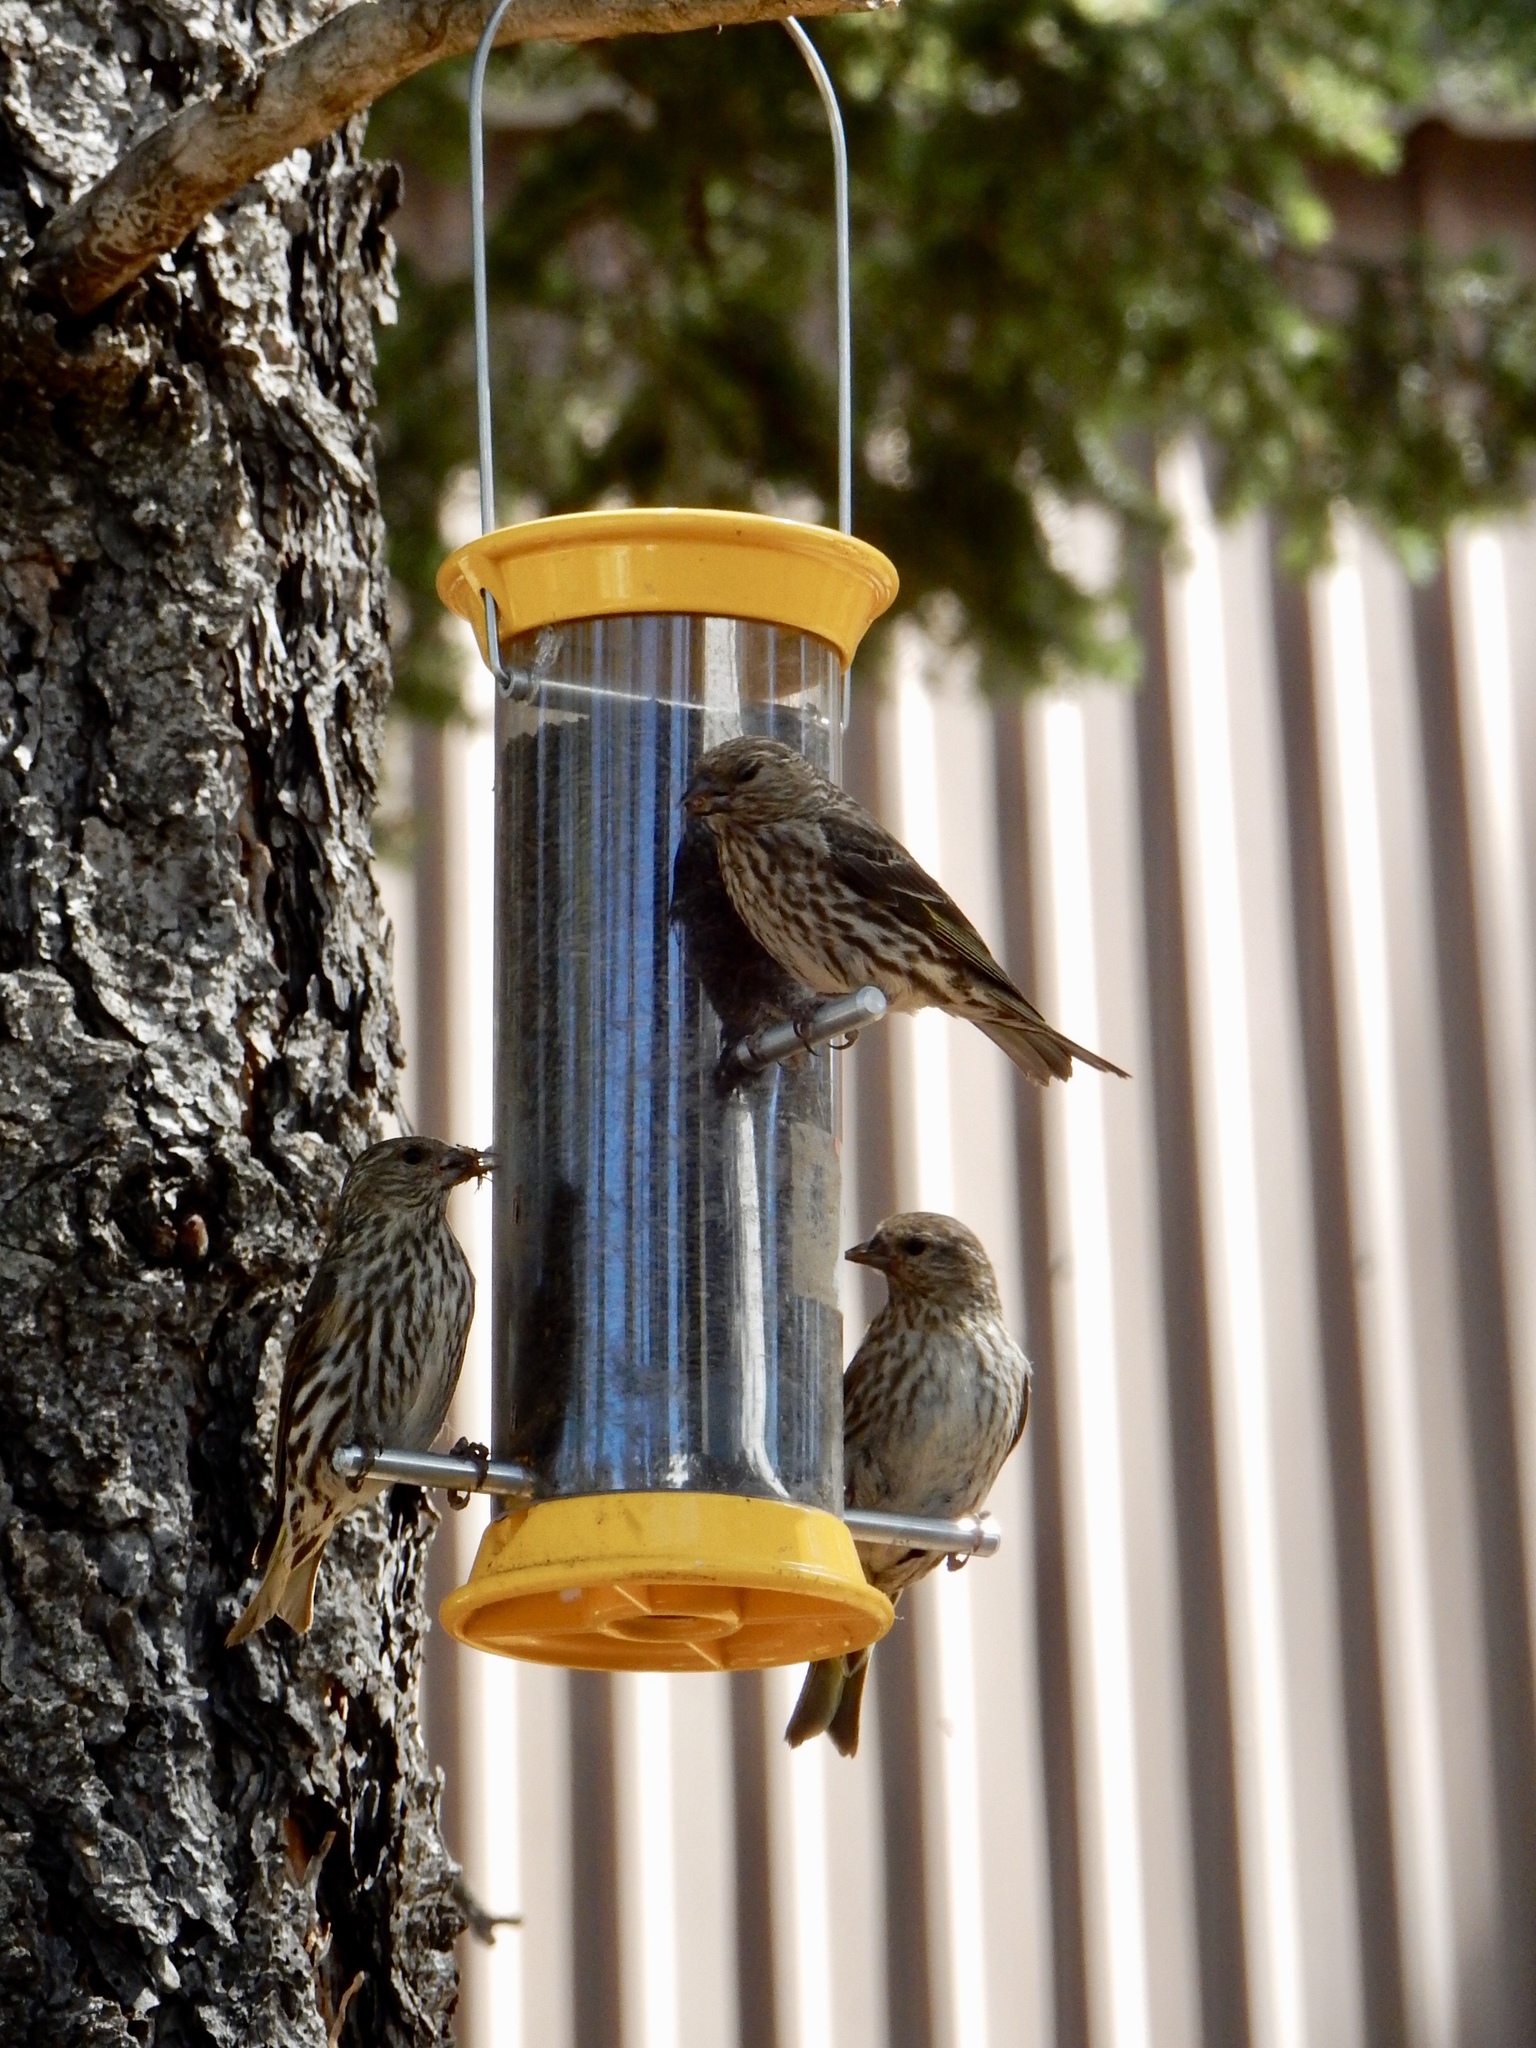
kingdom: Animalia
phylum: Chordata
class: Aves
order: Passeriformes
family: Fringillidae
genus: Spinus
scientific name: Spinus pinus
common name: Pine siskin
